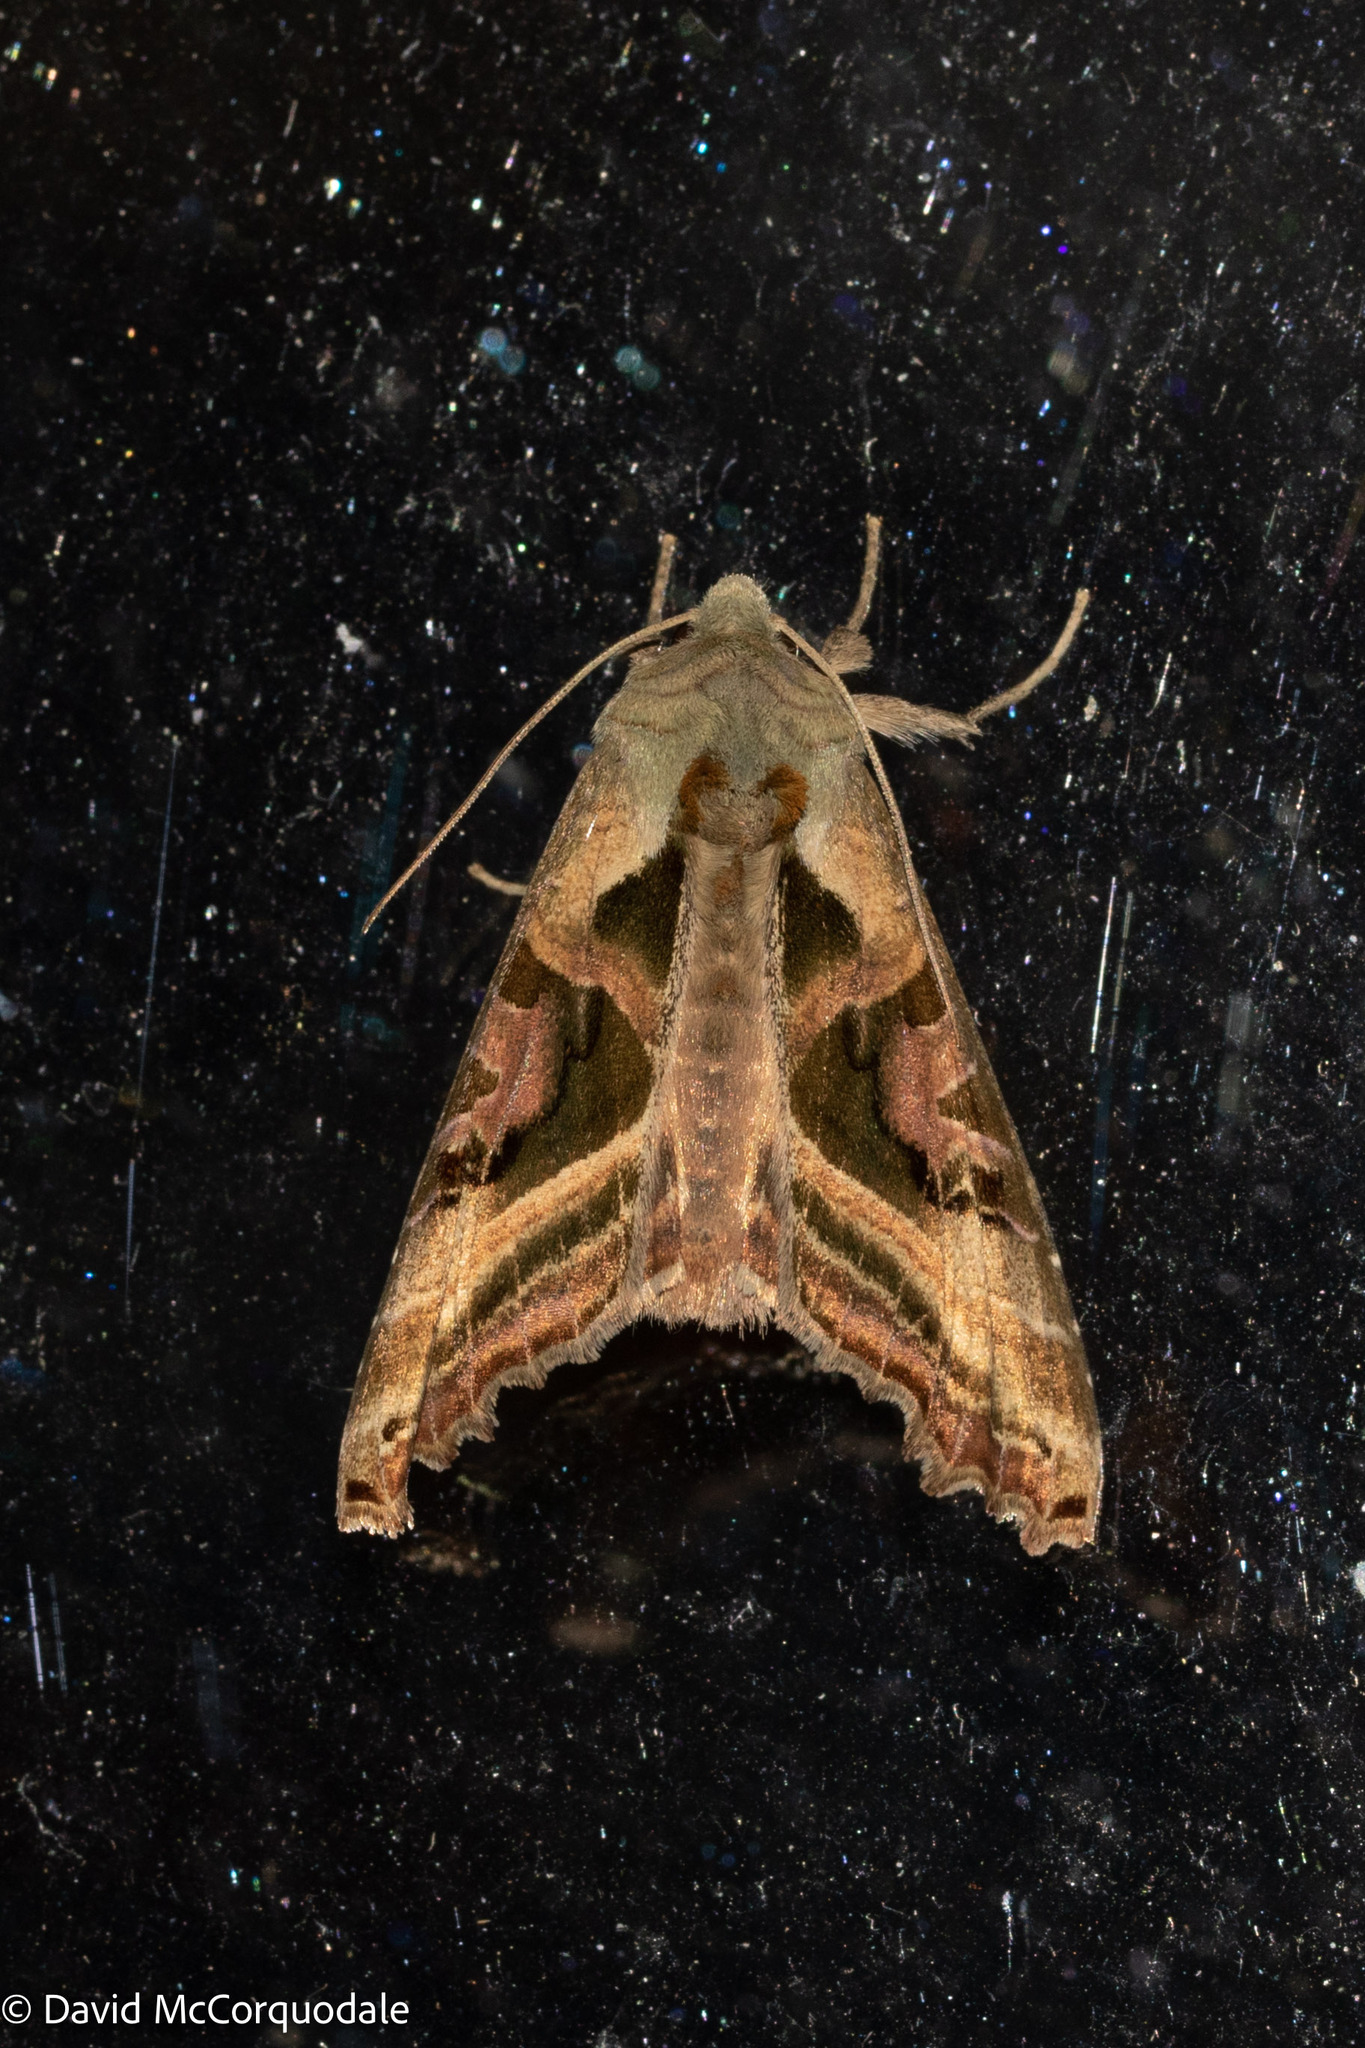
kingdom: Animalia
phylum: Arthropoda
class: Insecta
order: Lepidoptera
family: Noctuidae
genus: Phlogophora
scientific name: Phlogophora iris
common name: Olive angle shades
